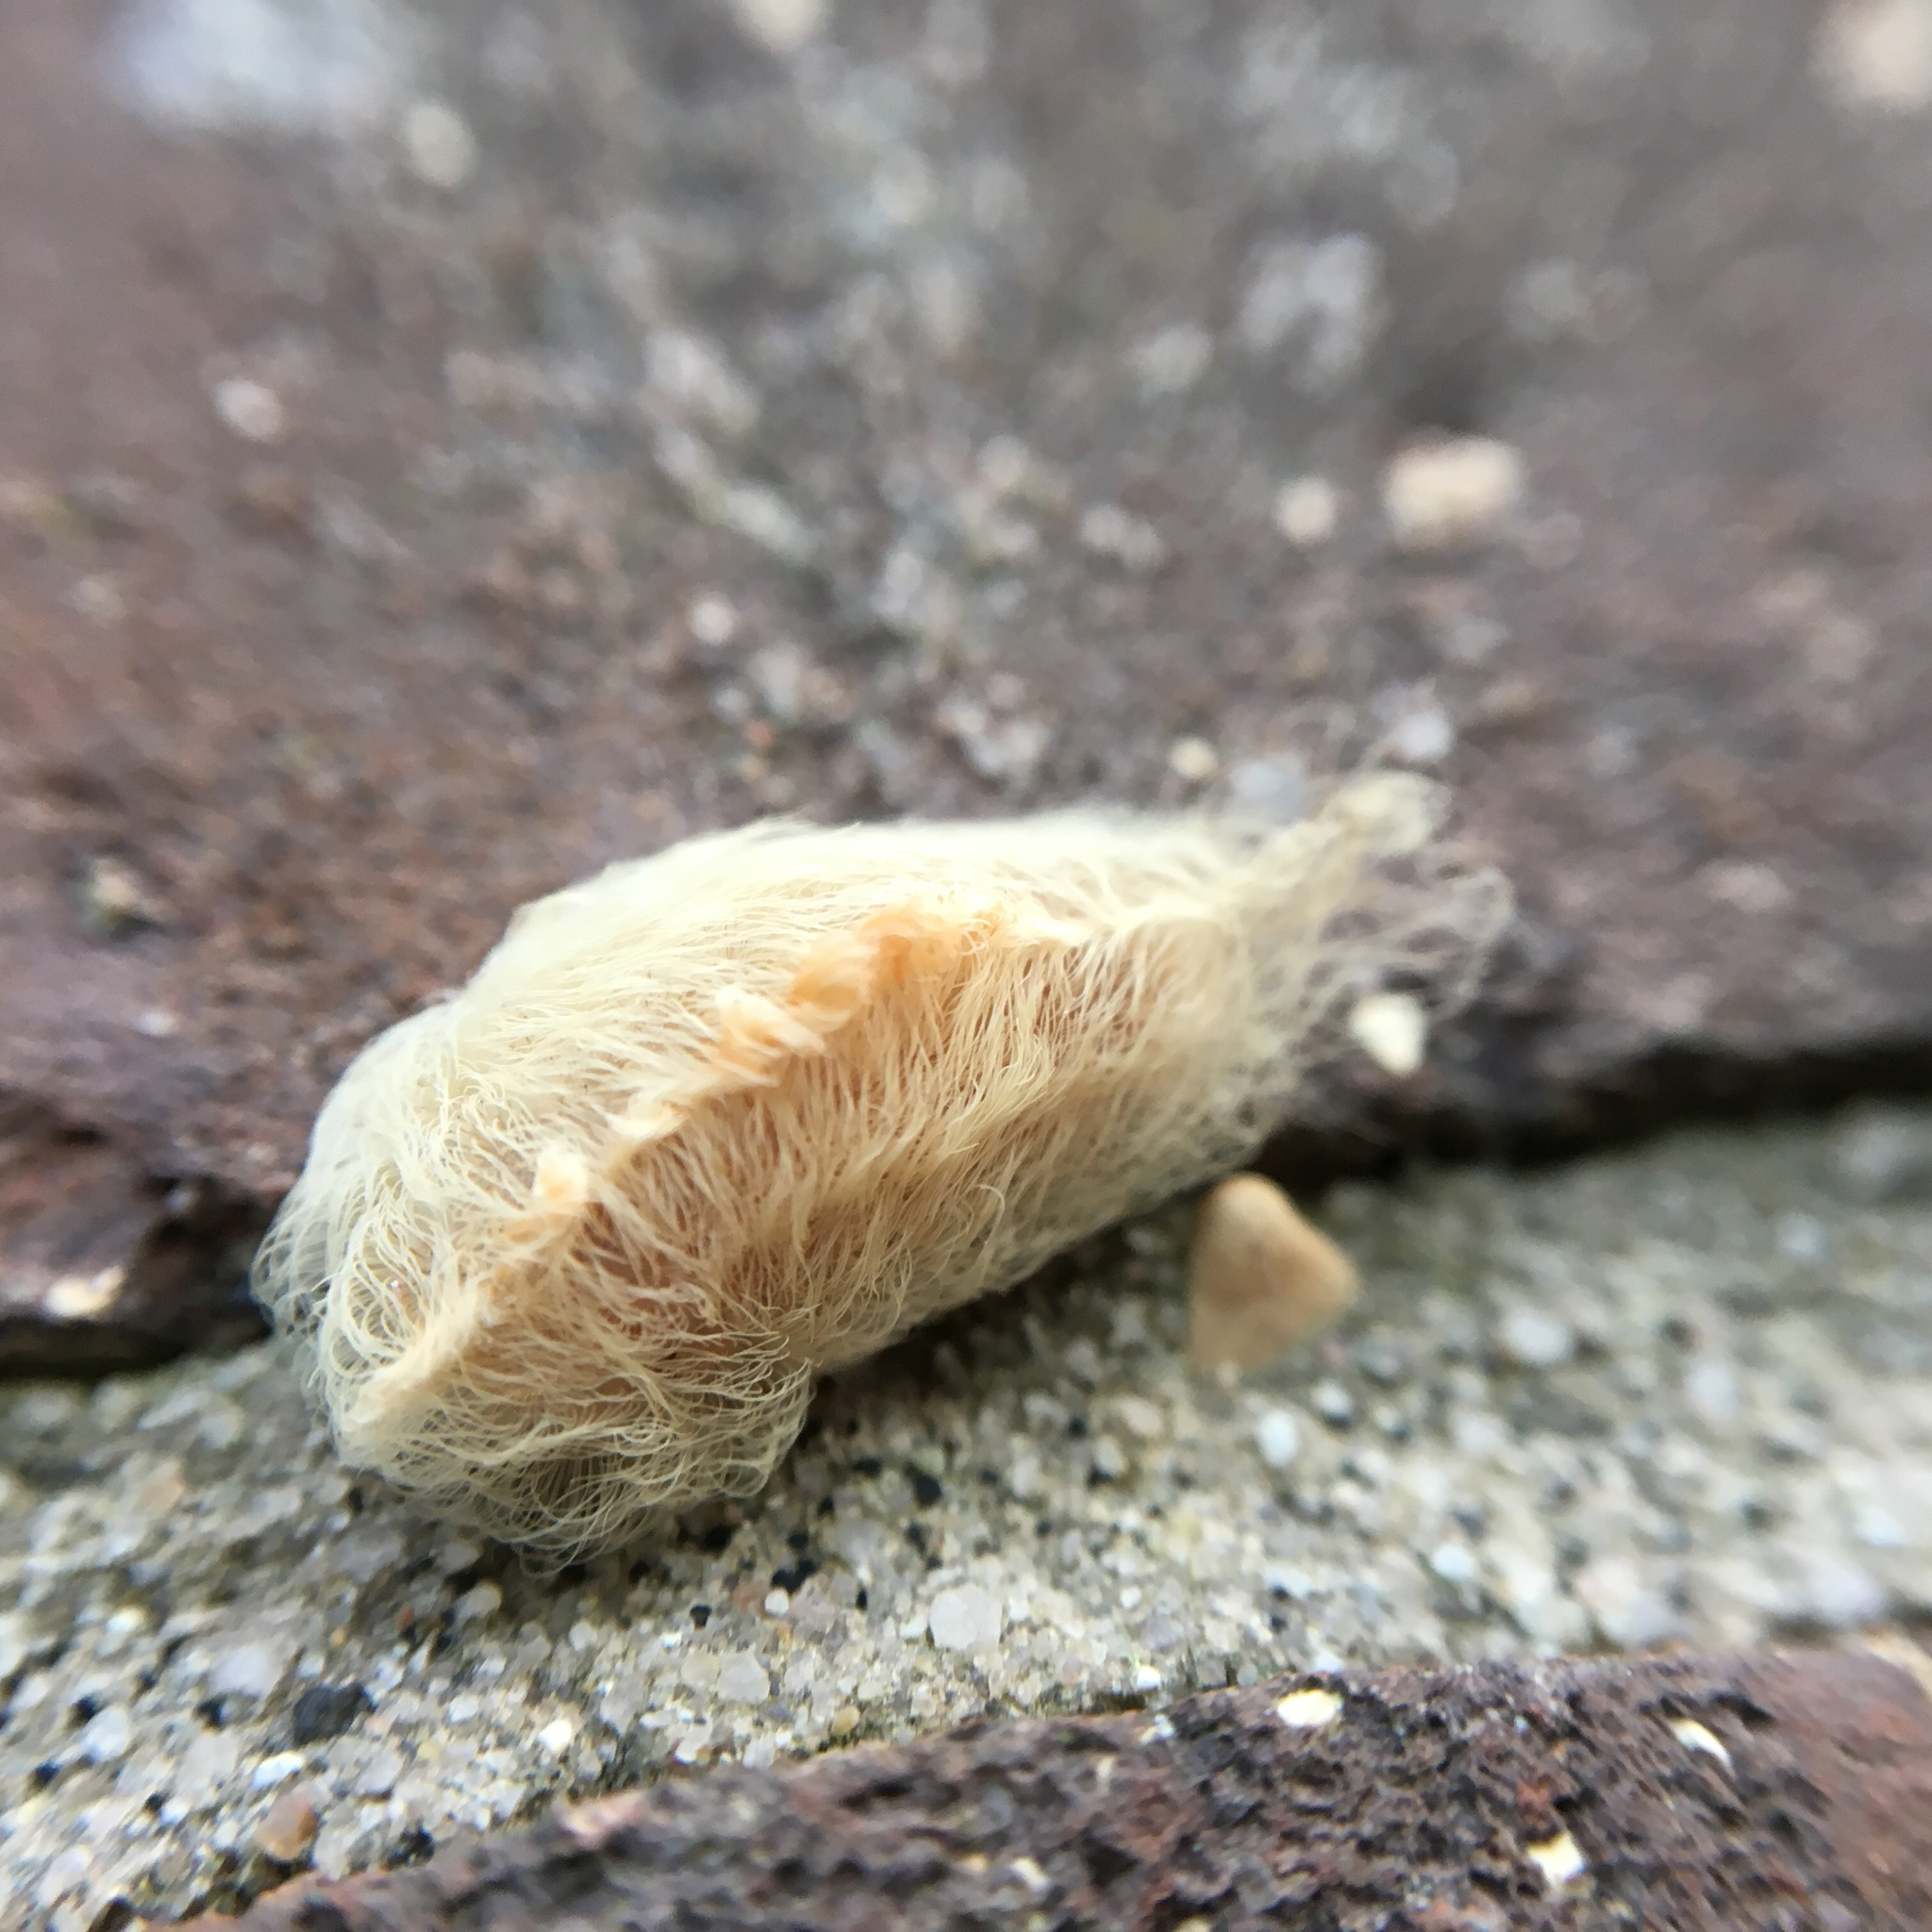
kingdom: Animalia
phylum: Arthropoda
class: Insecta
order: Lepidoptera
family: Megalopygidae
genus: Megalopyge
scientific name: Megalopyge opercularis
